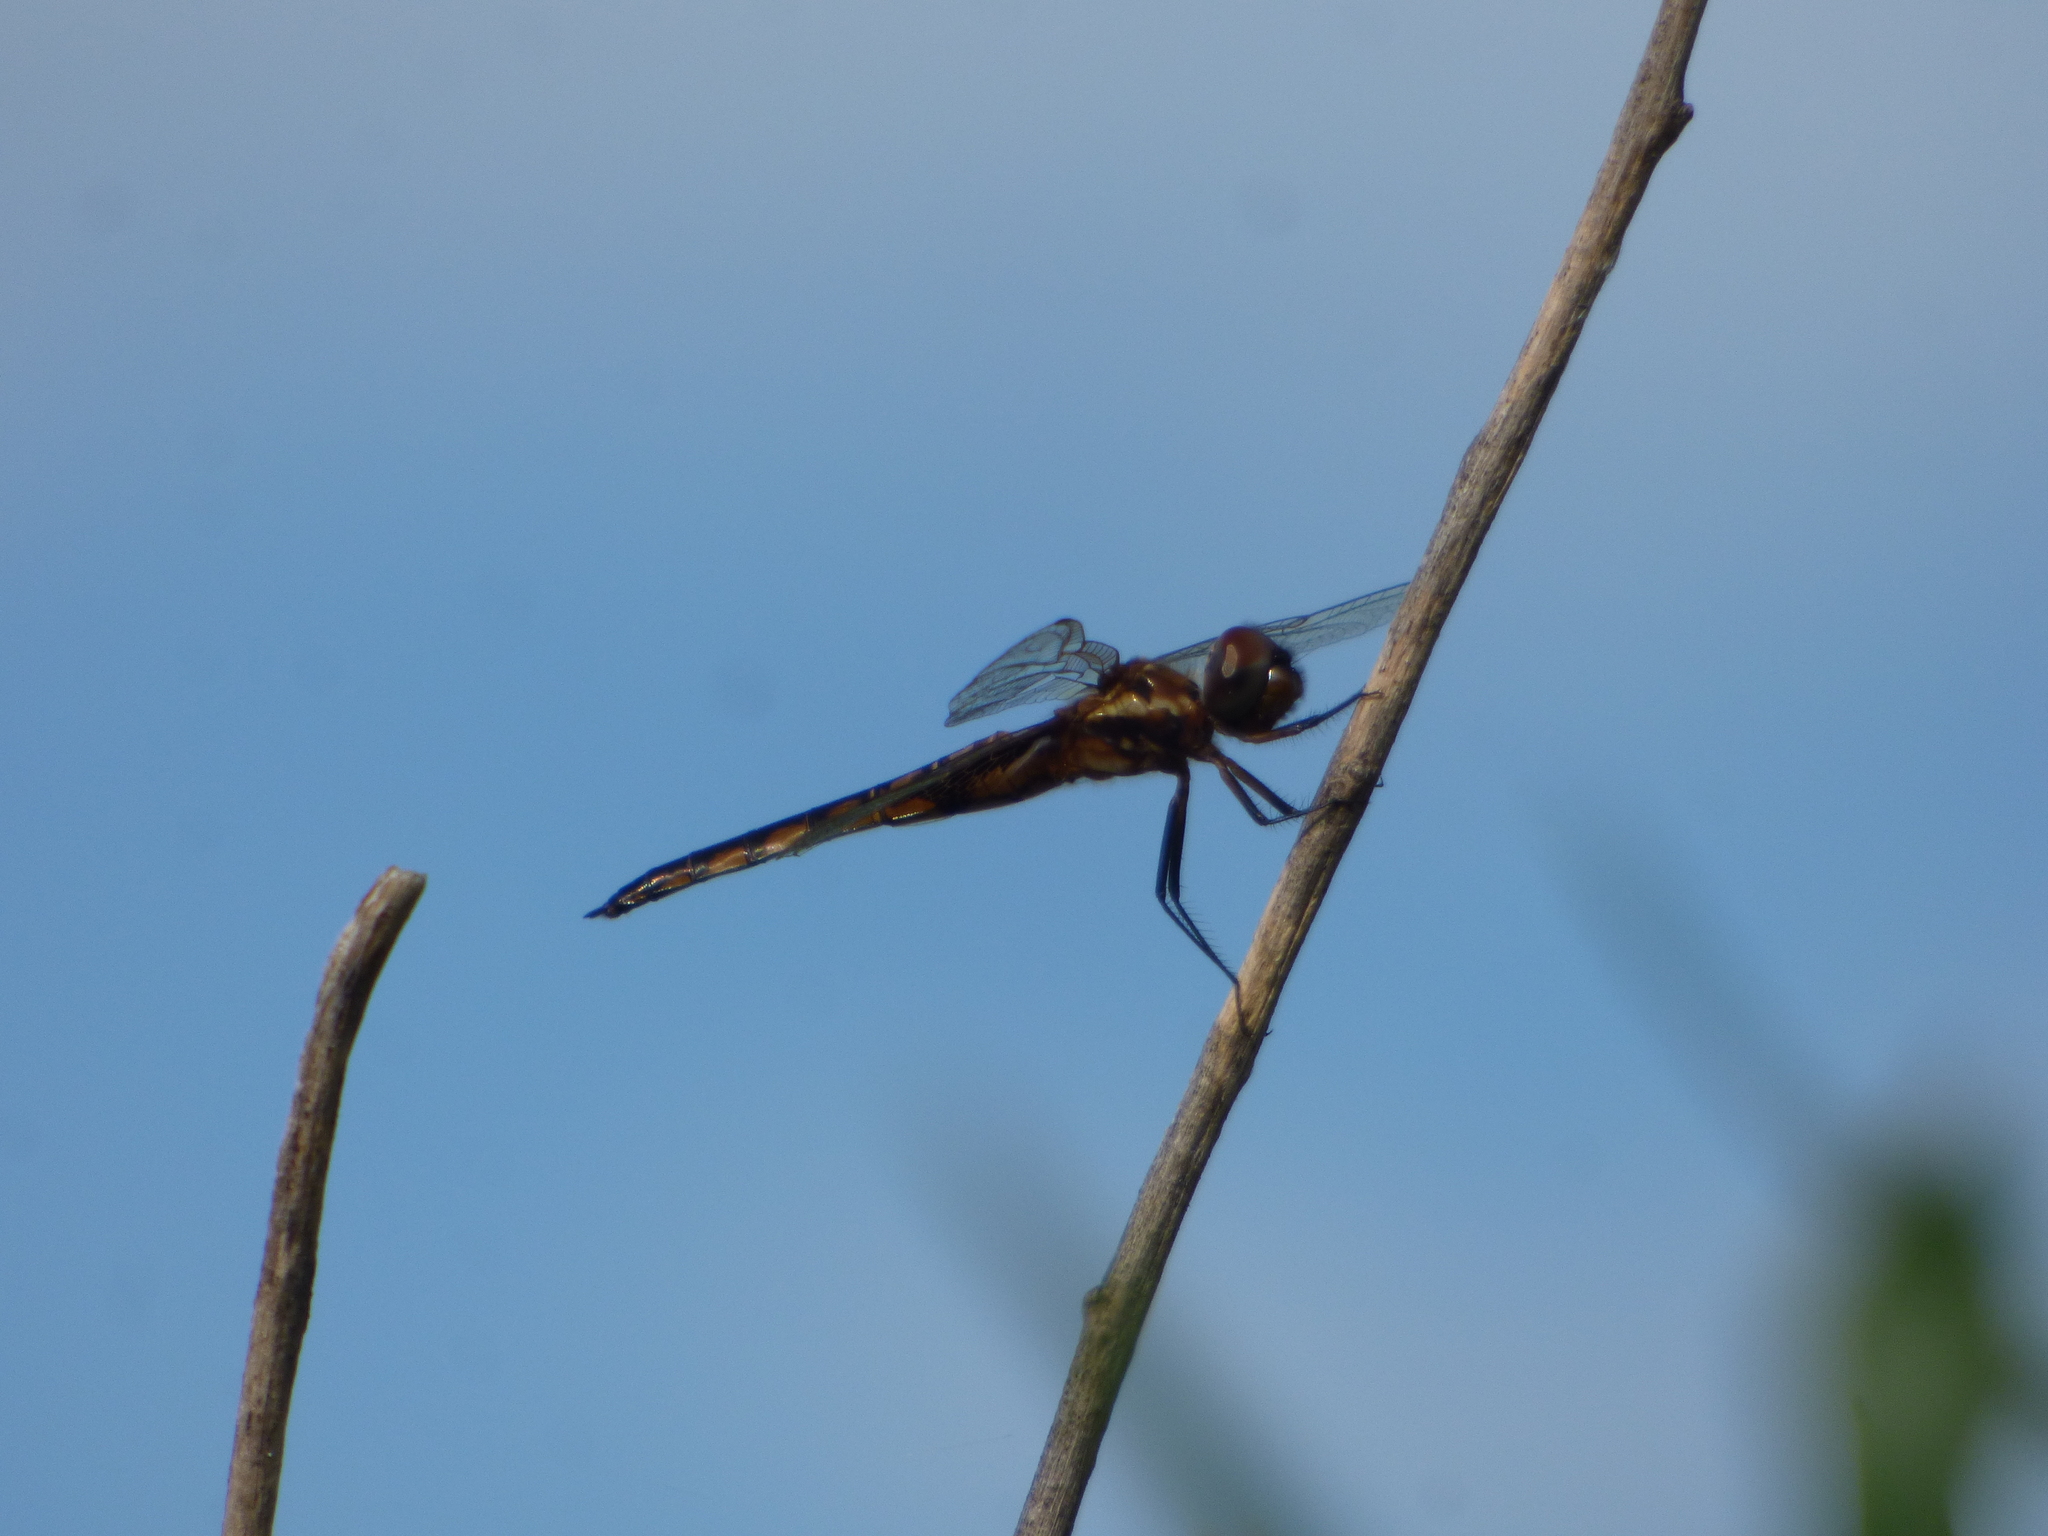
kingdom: Animalia
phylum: Arthropoda
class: Insecta
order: Odonata
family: Libellulidae
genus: Miathyria
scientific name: Miathyria marcella
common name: Hyacinth glider
